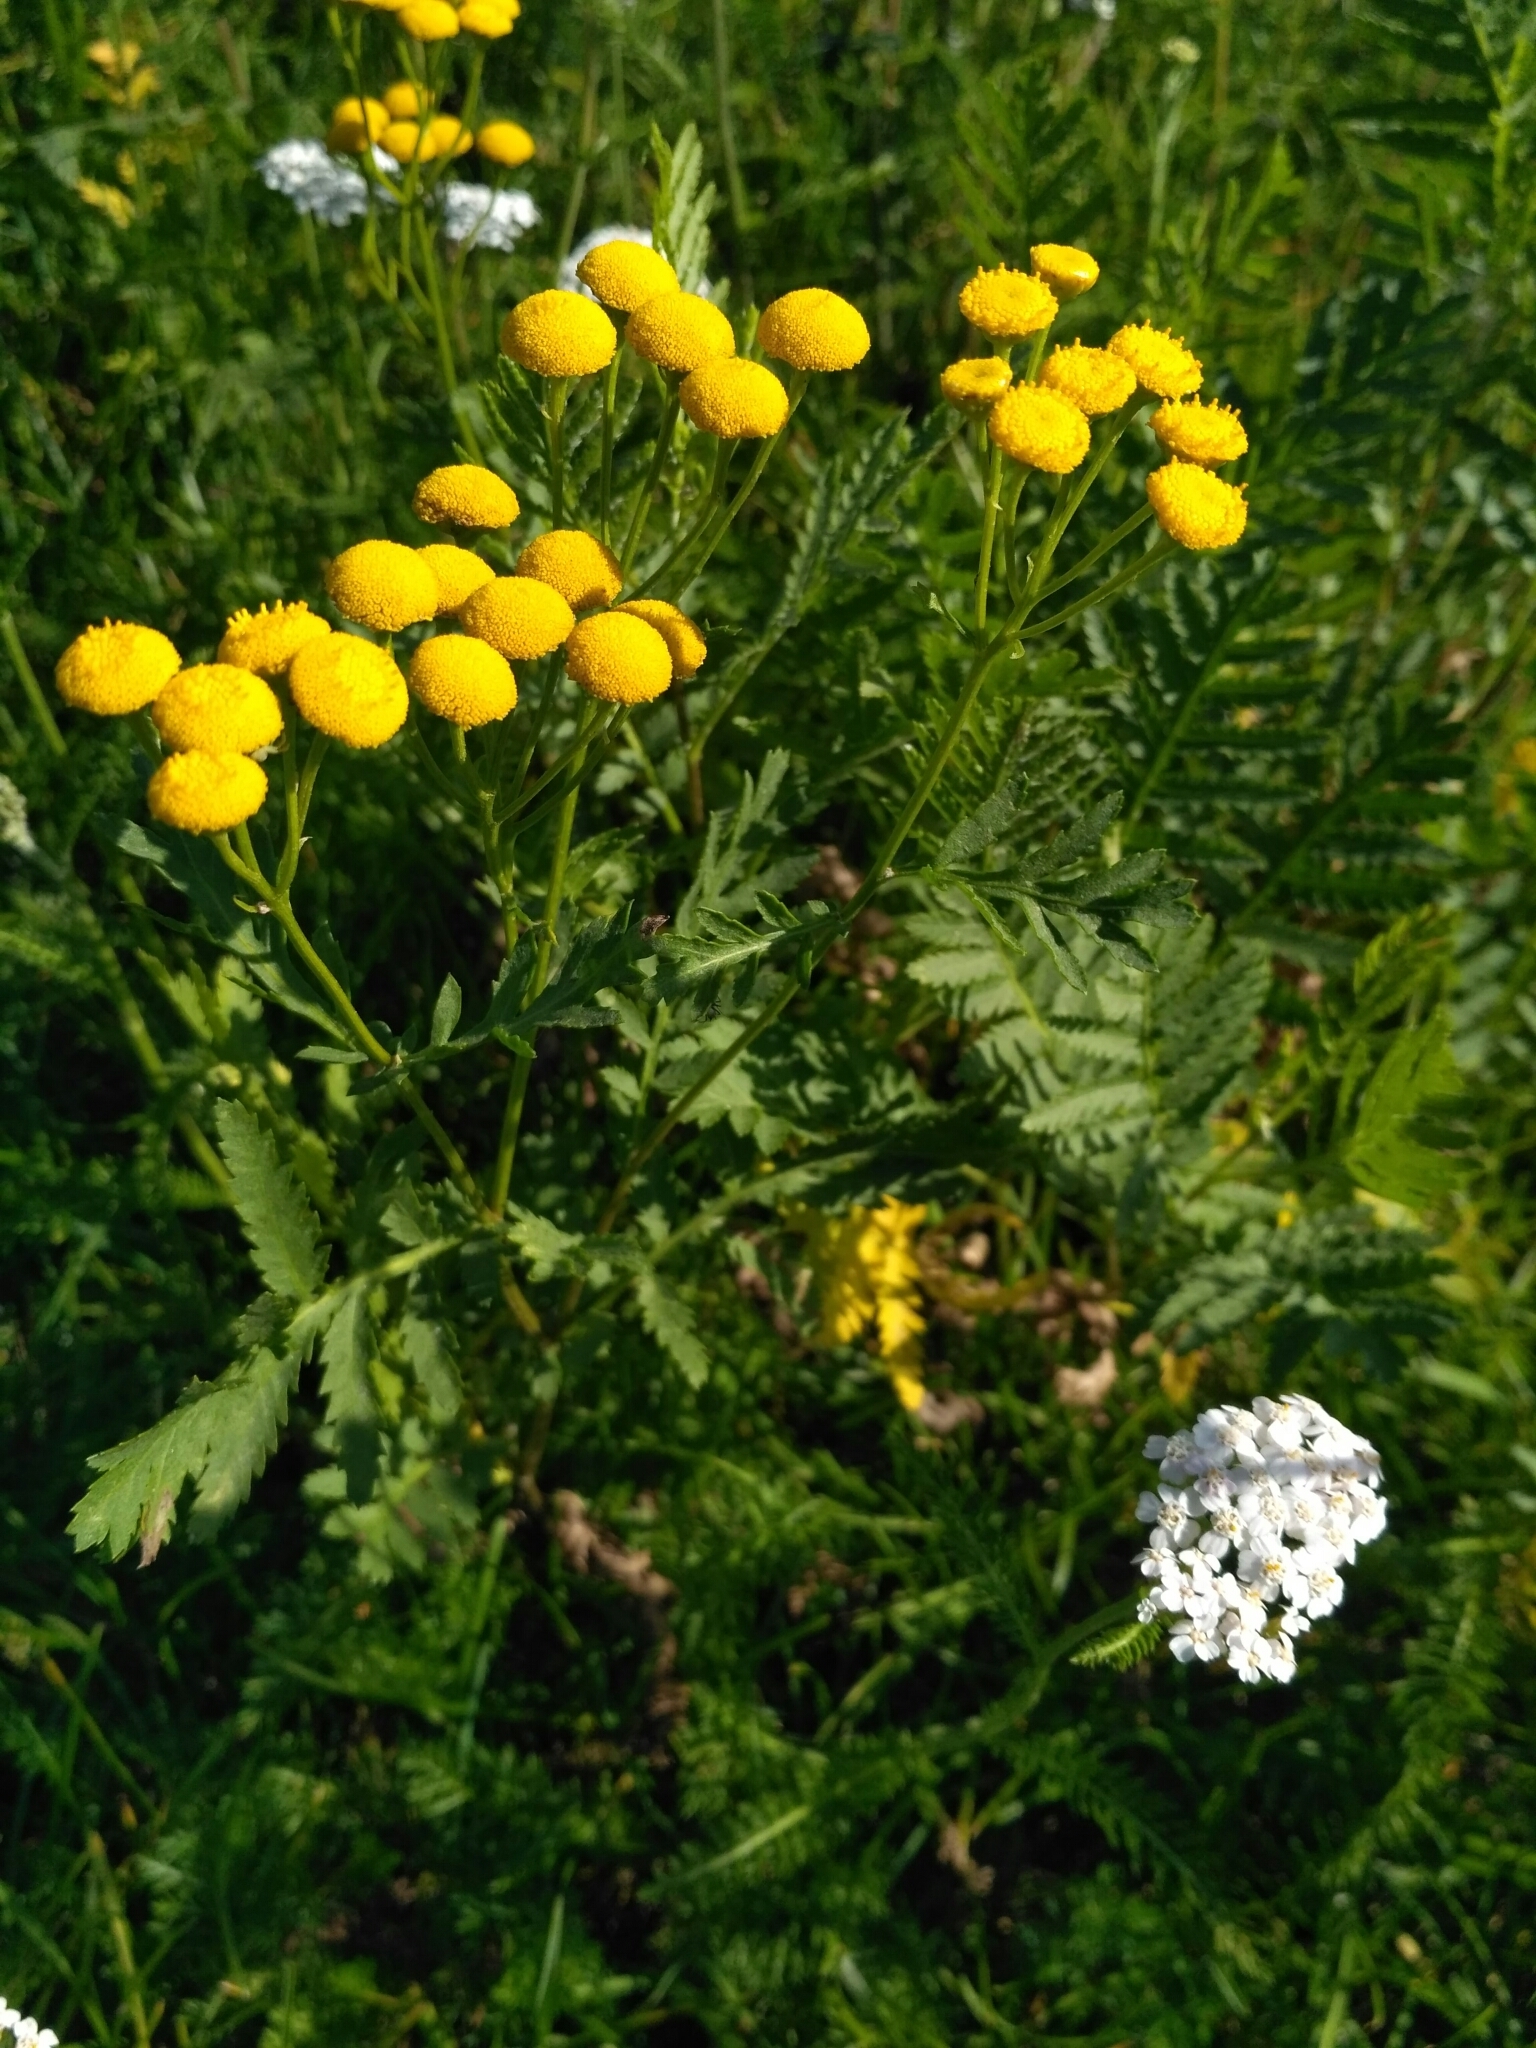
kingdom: Plantae
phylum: Tracheophyta
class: Magnoliopsida
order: Asterales
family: Asteraceae
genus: Tanacetum
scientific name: Tanacetum vulgare
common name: Common tansy
